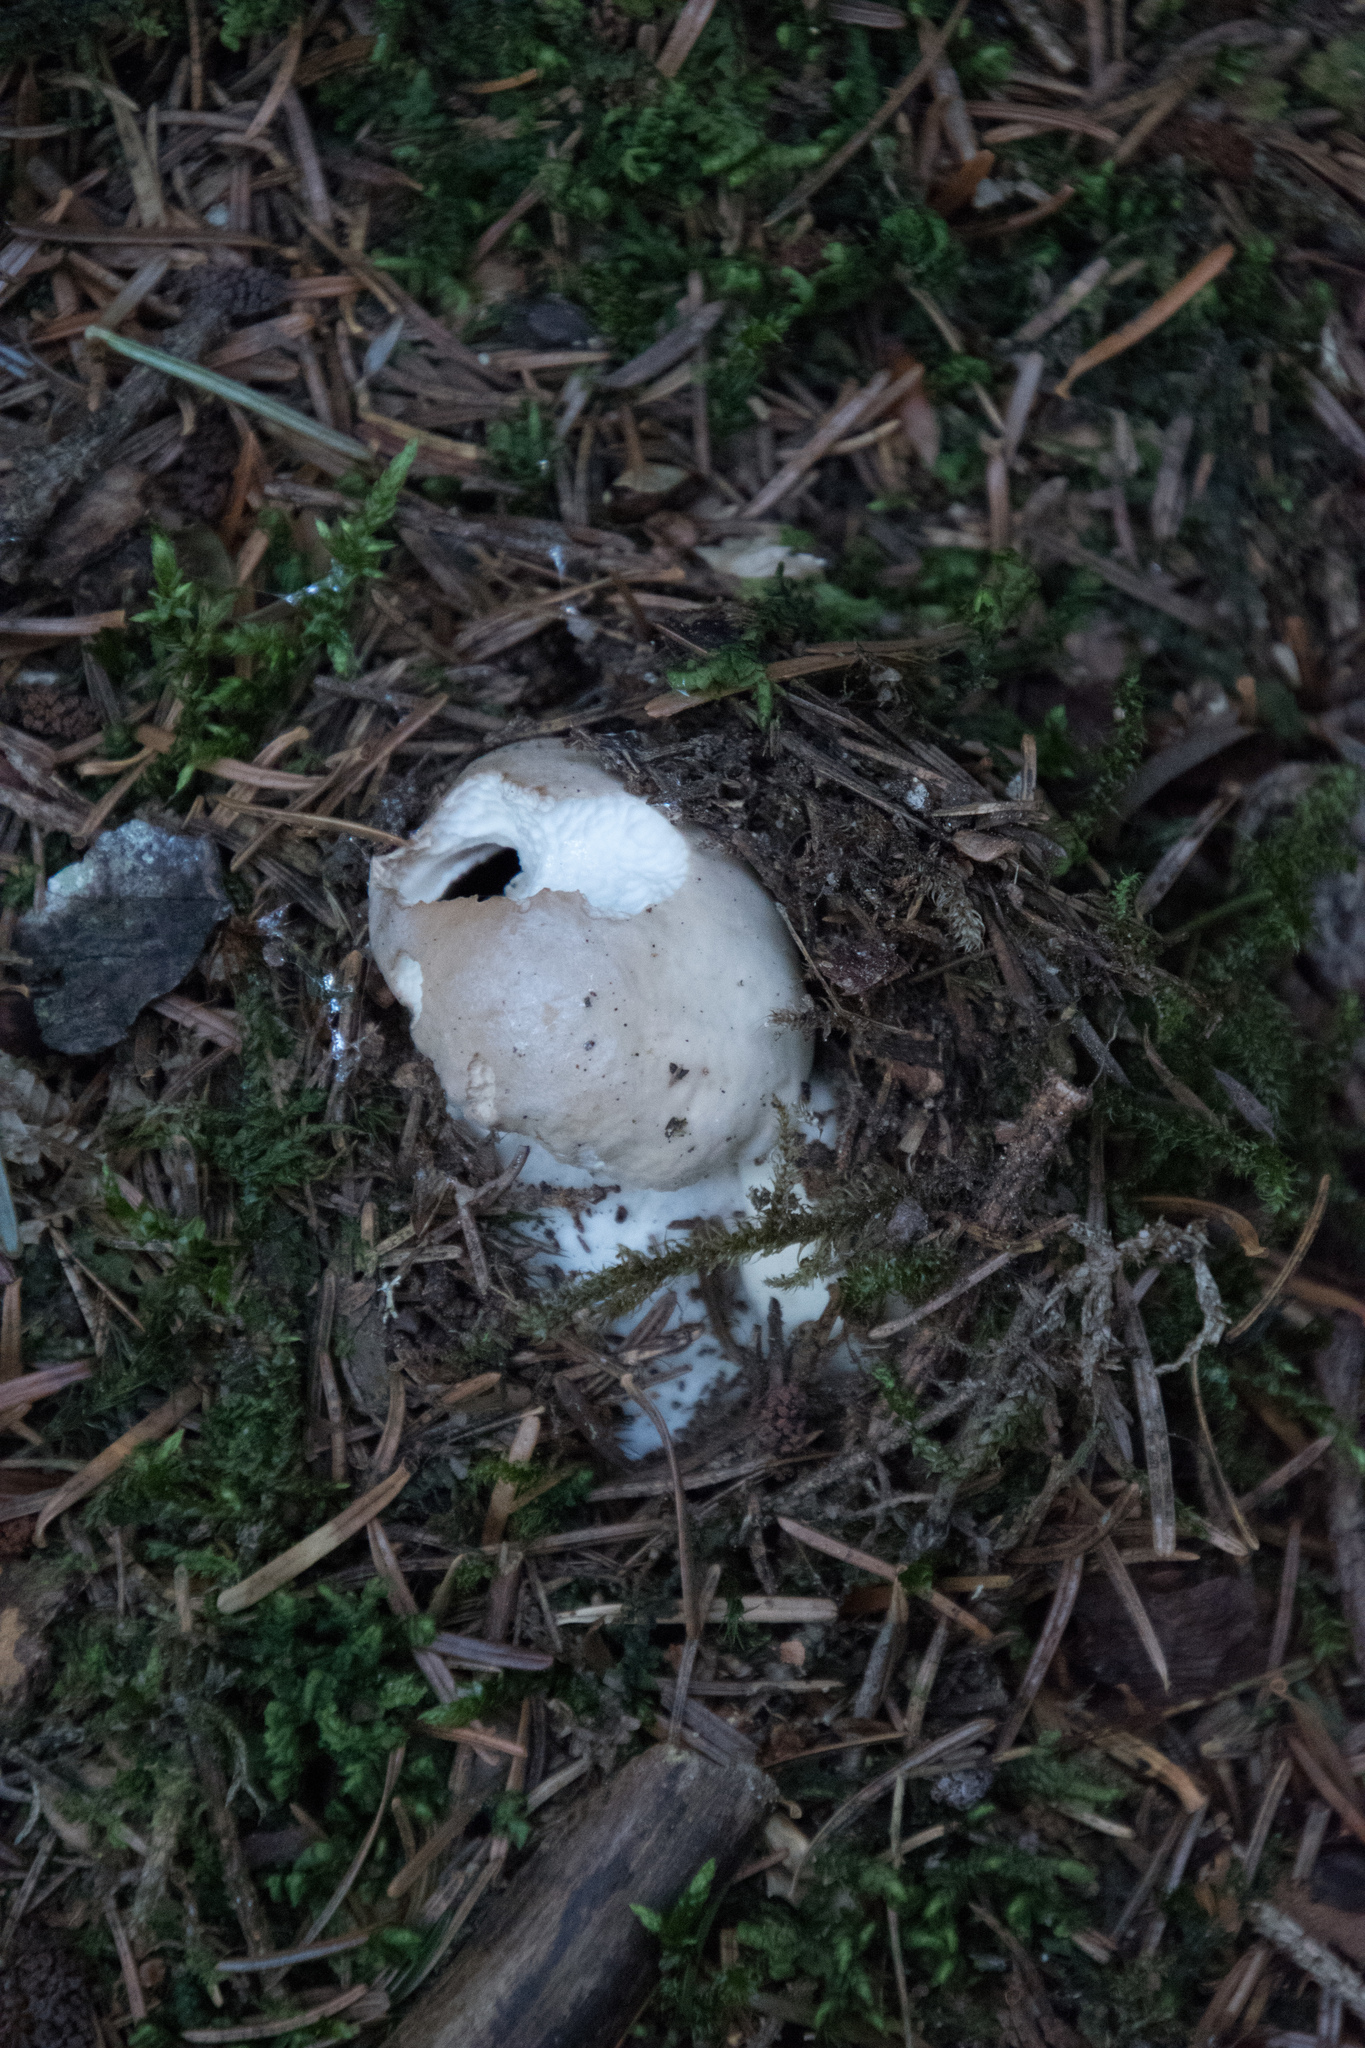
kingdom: Fungi
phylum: Basidiomycota
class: Agaricomycetes
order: Boletales
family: Boletaceae
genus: Boletus
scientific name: Boletus edulis
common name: Cep
